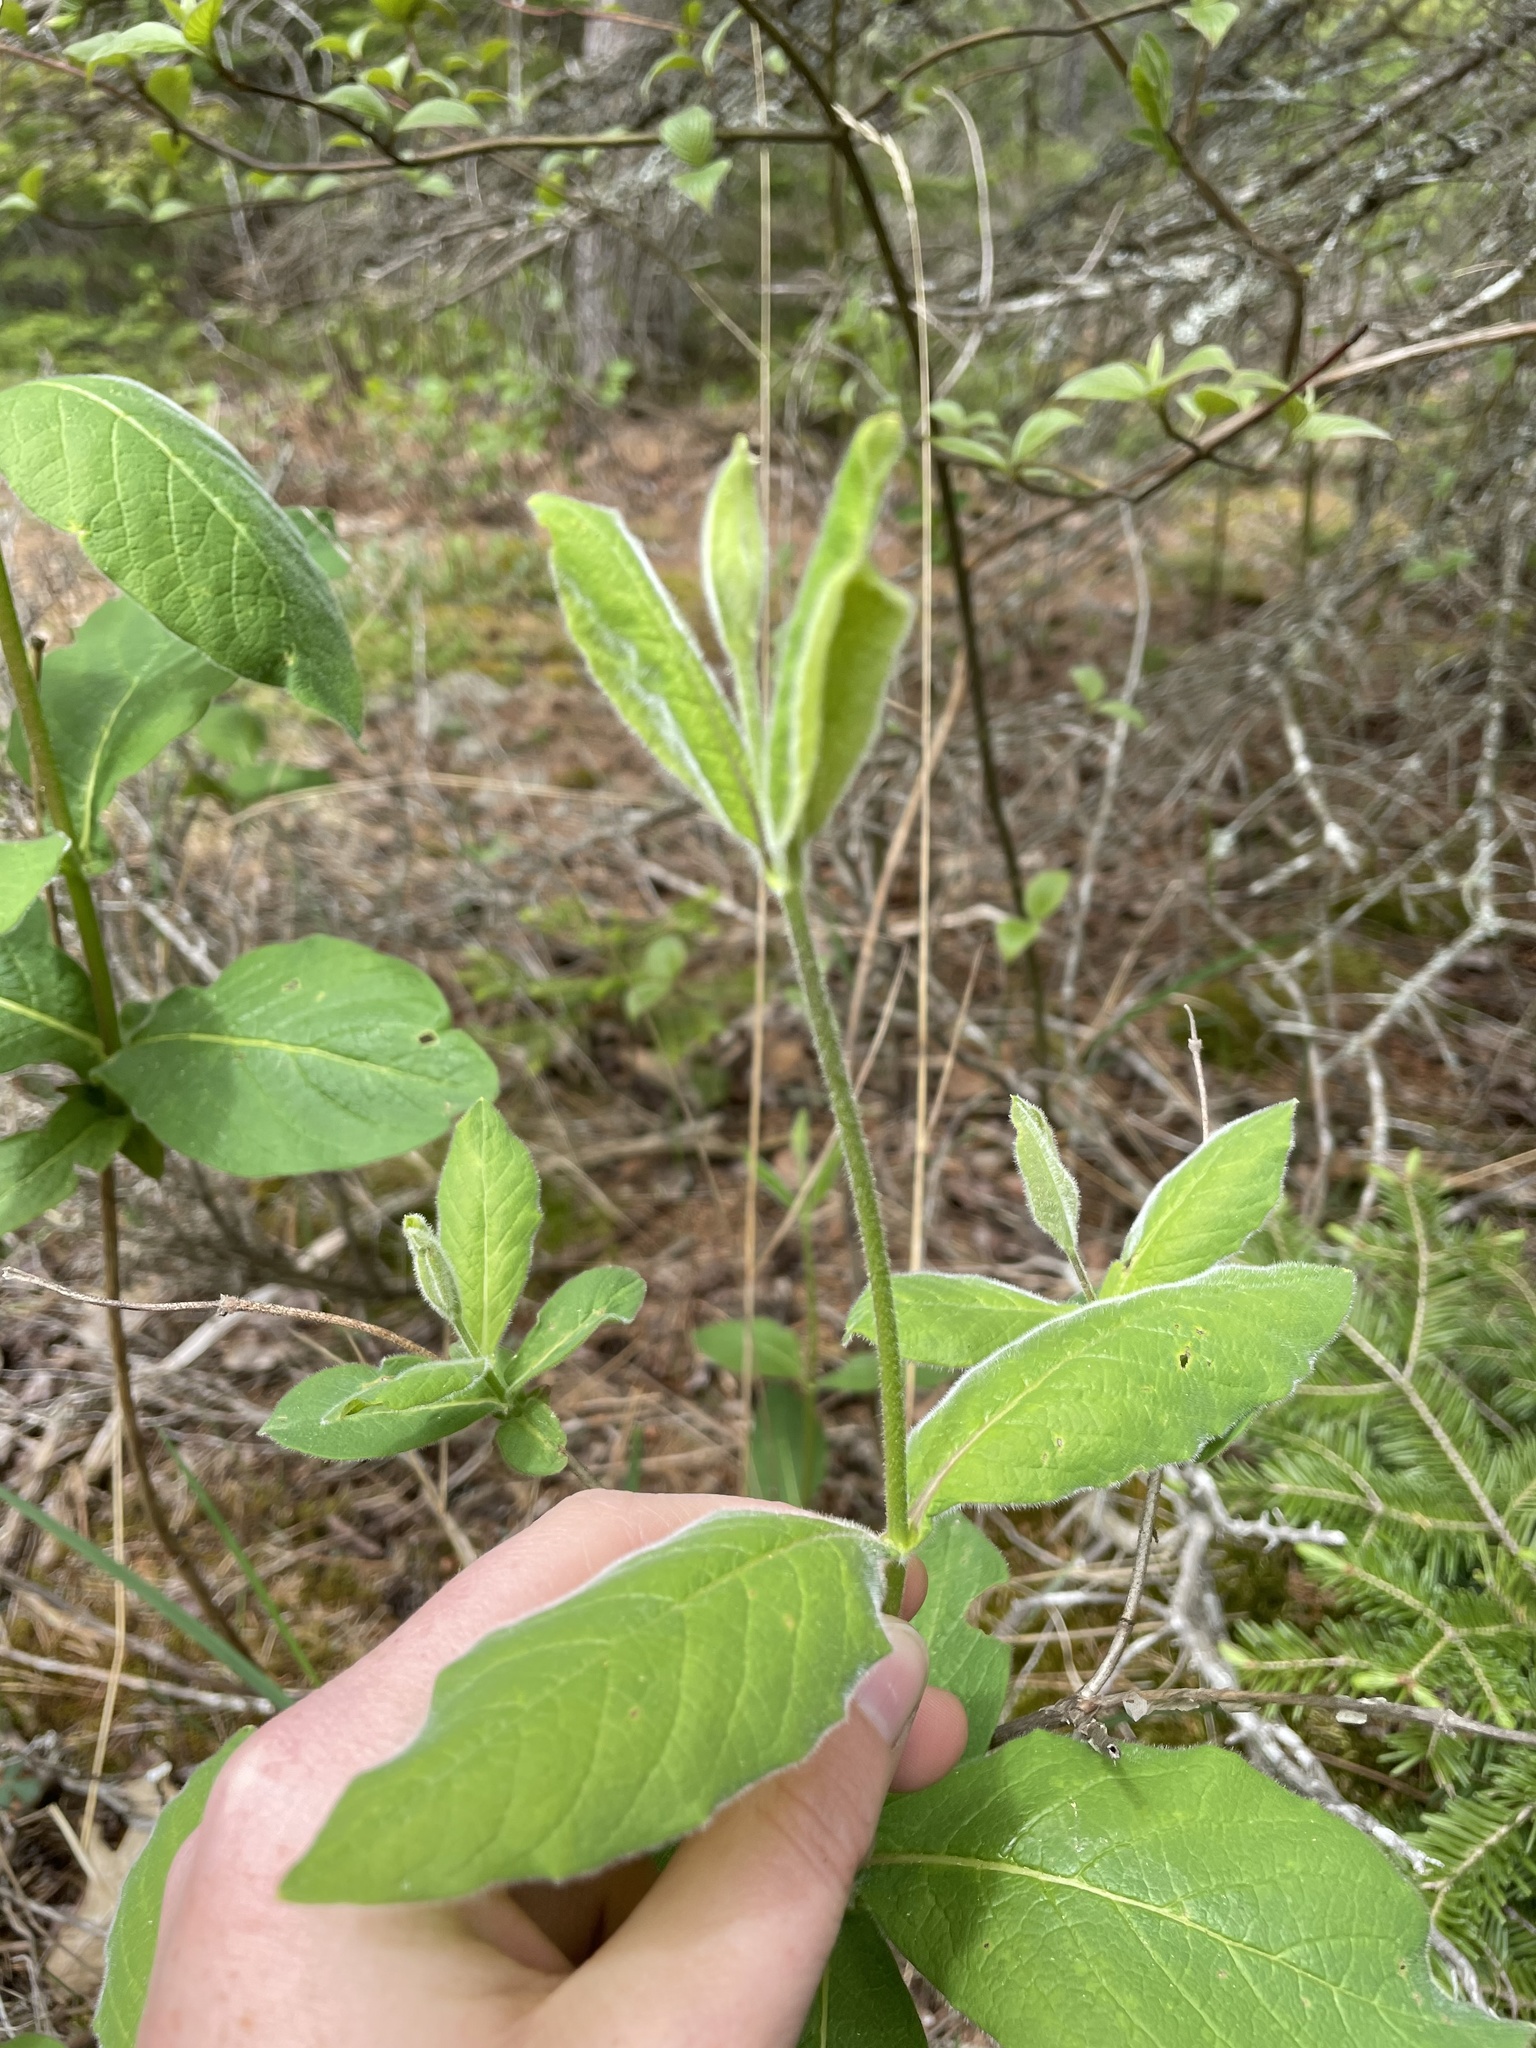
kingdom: Plantae
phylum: Tracheophyta
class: Magnoliopsida
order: Dipsacales
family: Caprifoliaceae
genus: Lonicera
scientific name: Lonicera hirsuta
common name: Hairy honeysuckle
